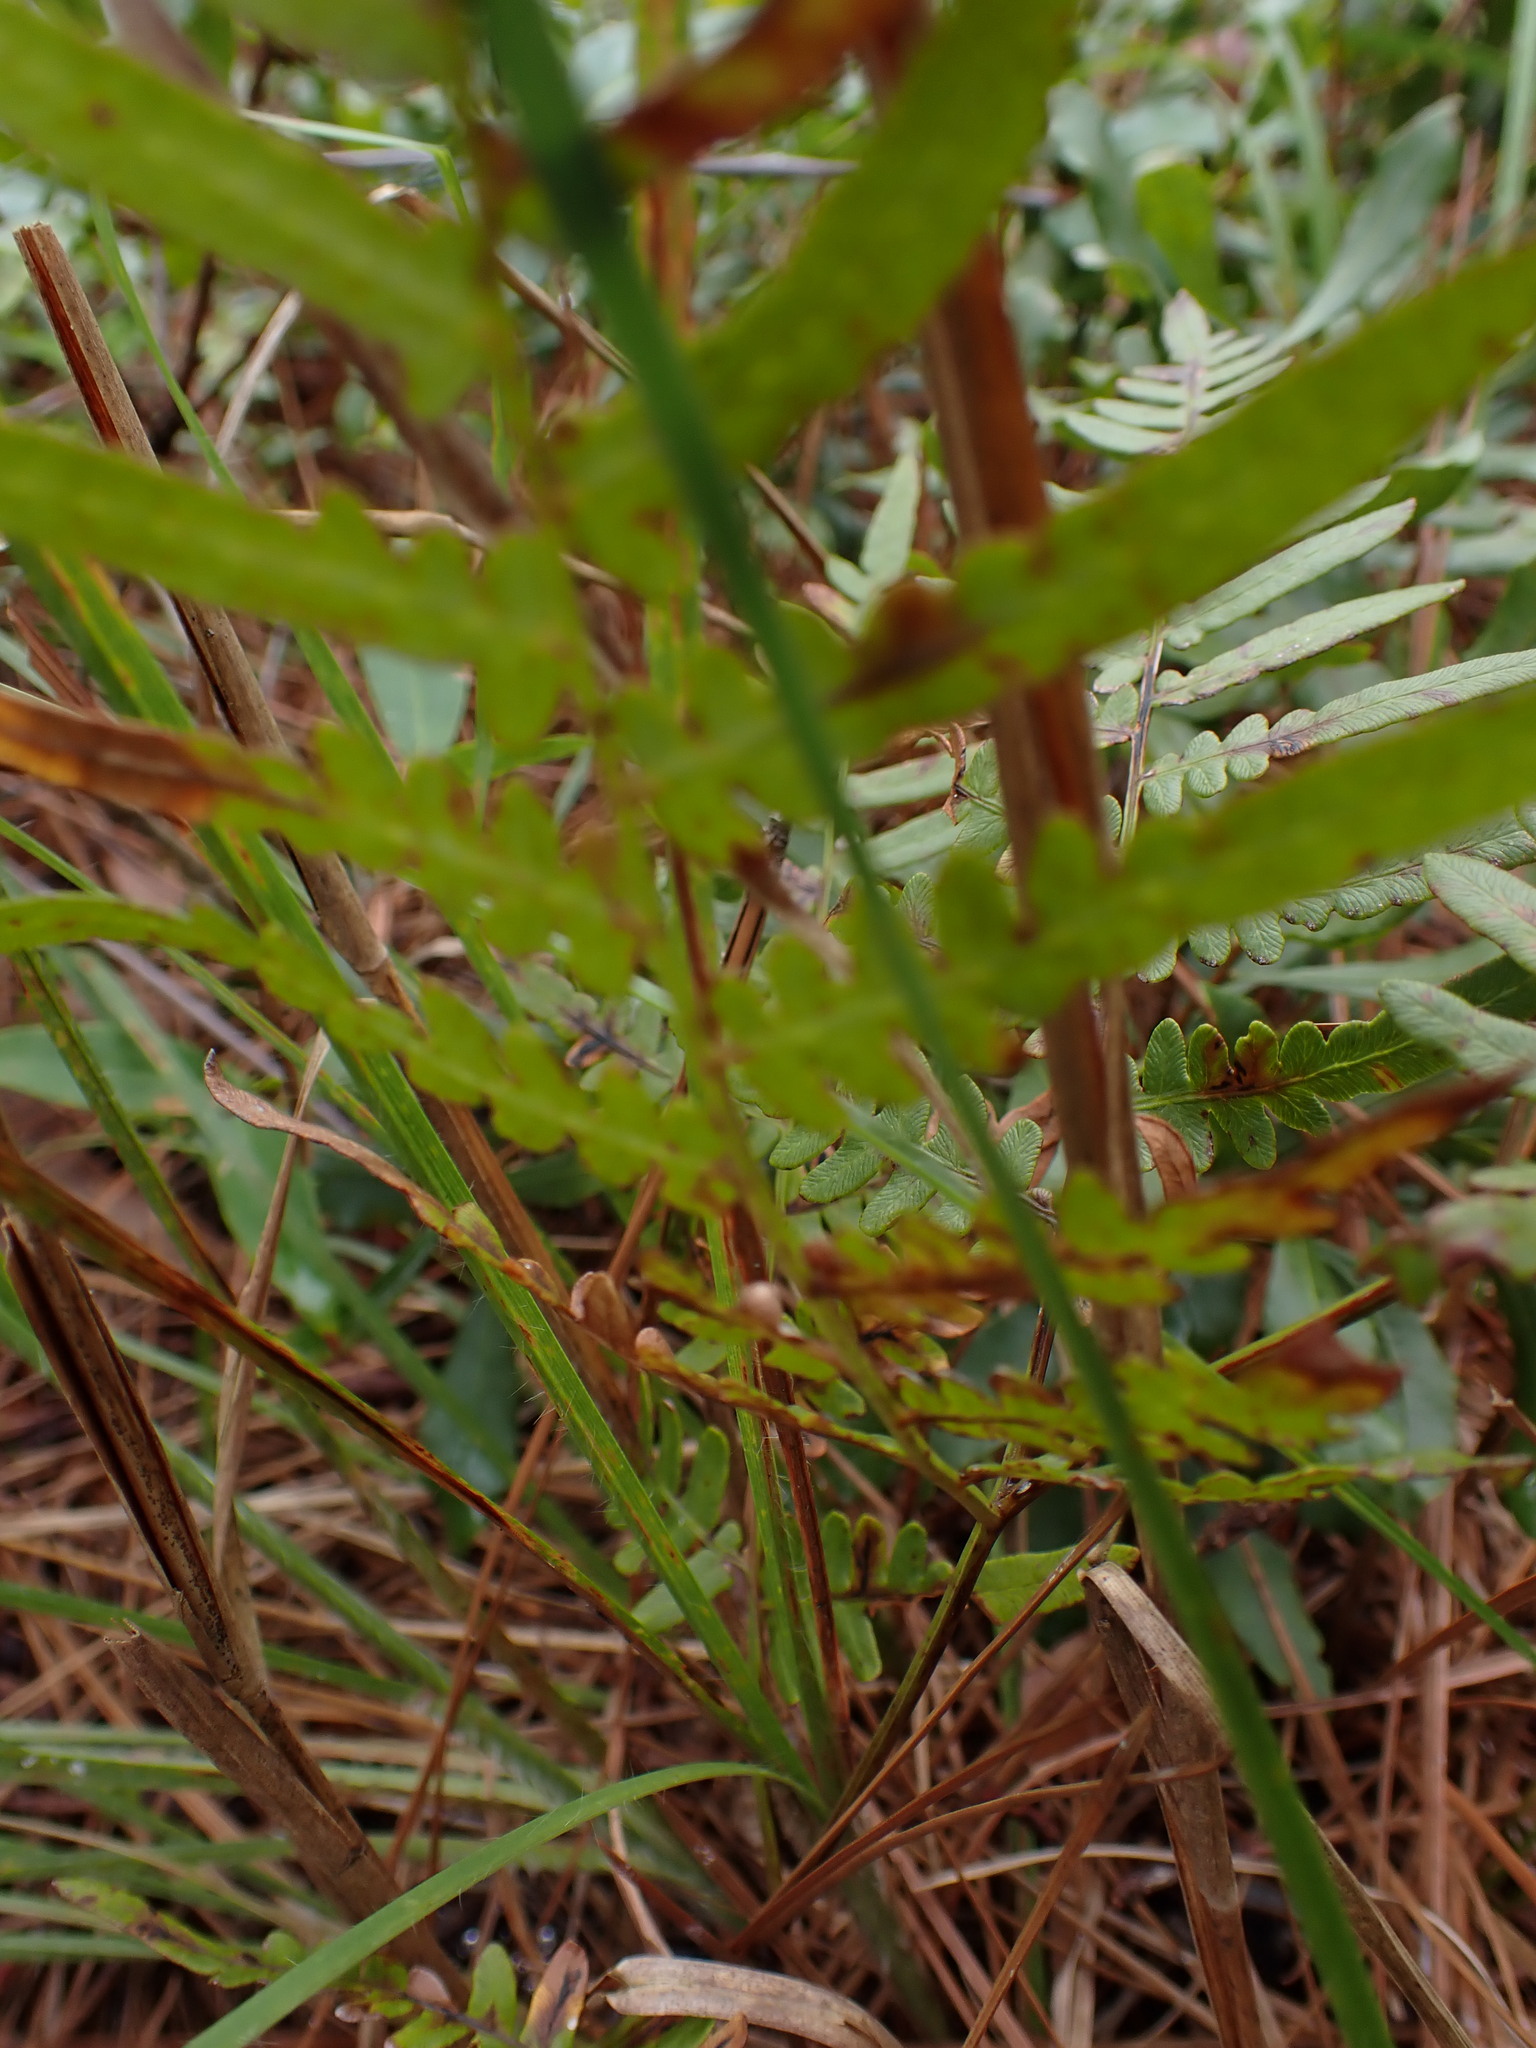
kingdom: Plantae
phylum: Tracheophyta
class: Polypodiopsida
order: Polypodiales
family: Dennstaedtiaceae
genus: Pteridium
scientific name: Pteridium aquilinum
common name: Bracken
